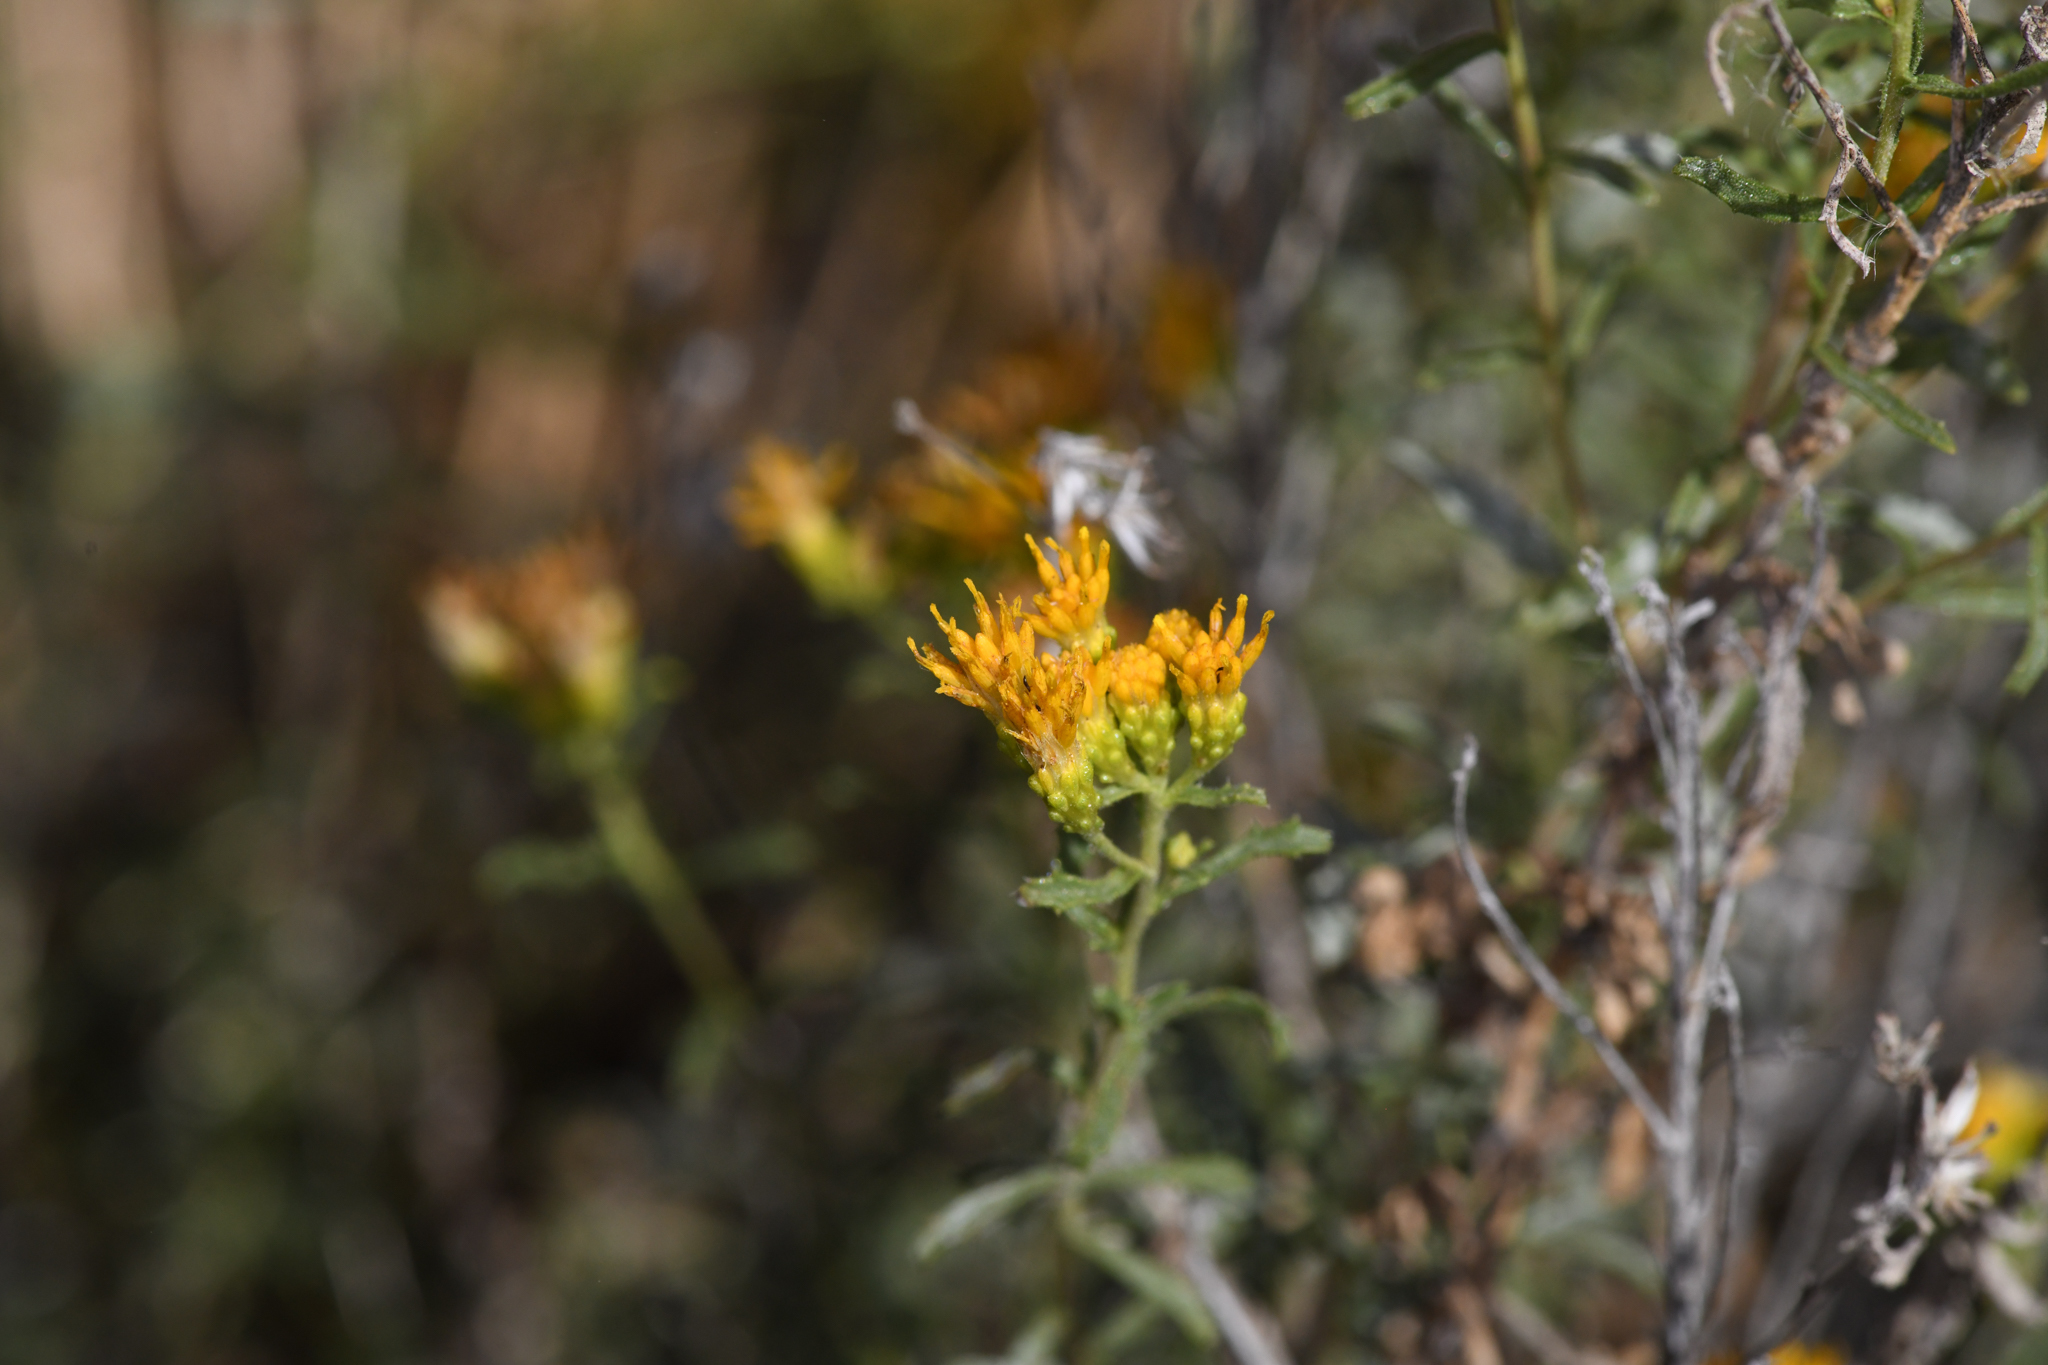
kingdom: Plantae
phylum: Tracheophyta
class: Magnoliopsida
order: Asterales
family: Asteraceae
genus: Isocoma
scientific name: Isocoma acradenia
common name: Alkali jimmyweed
